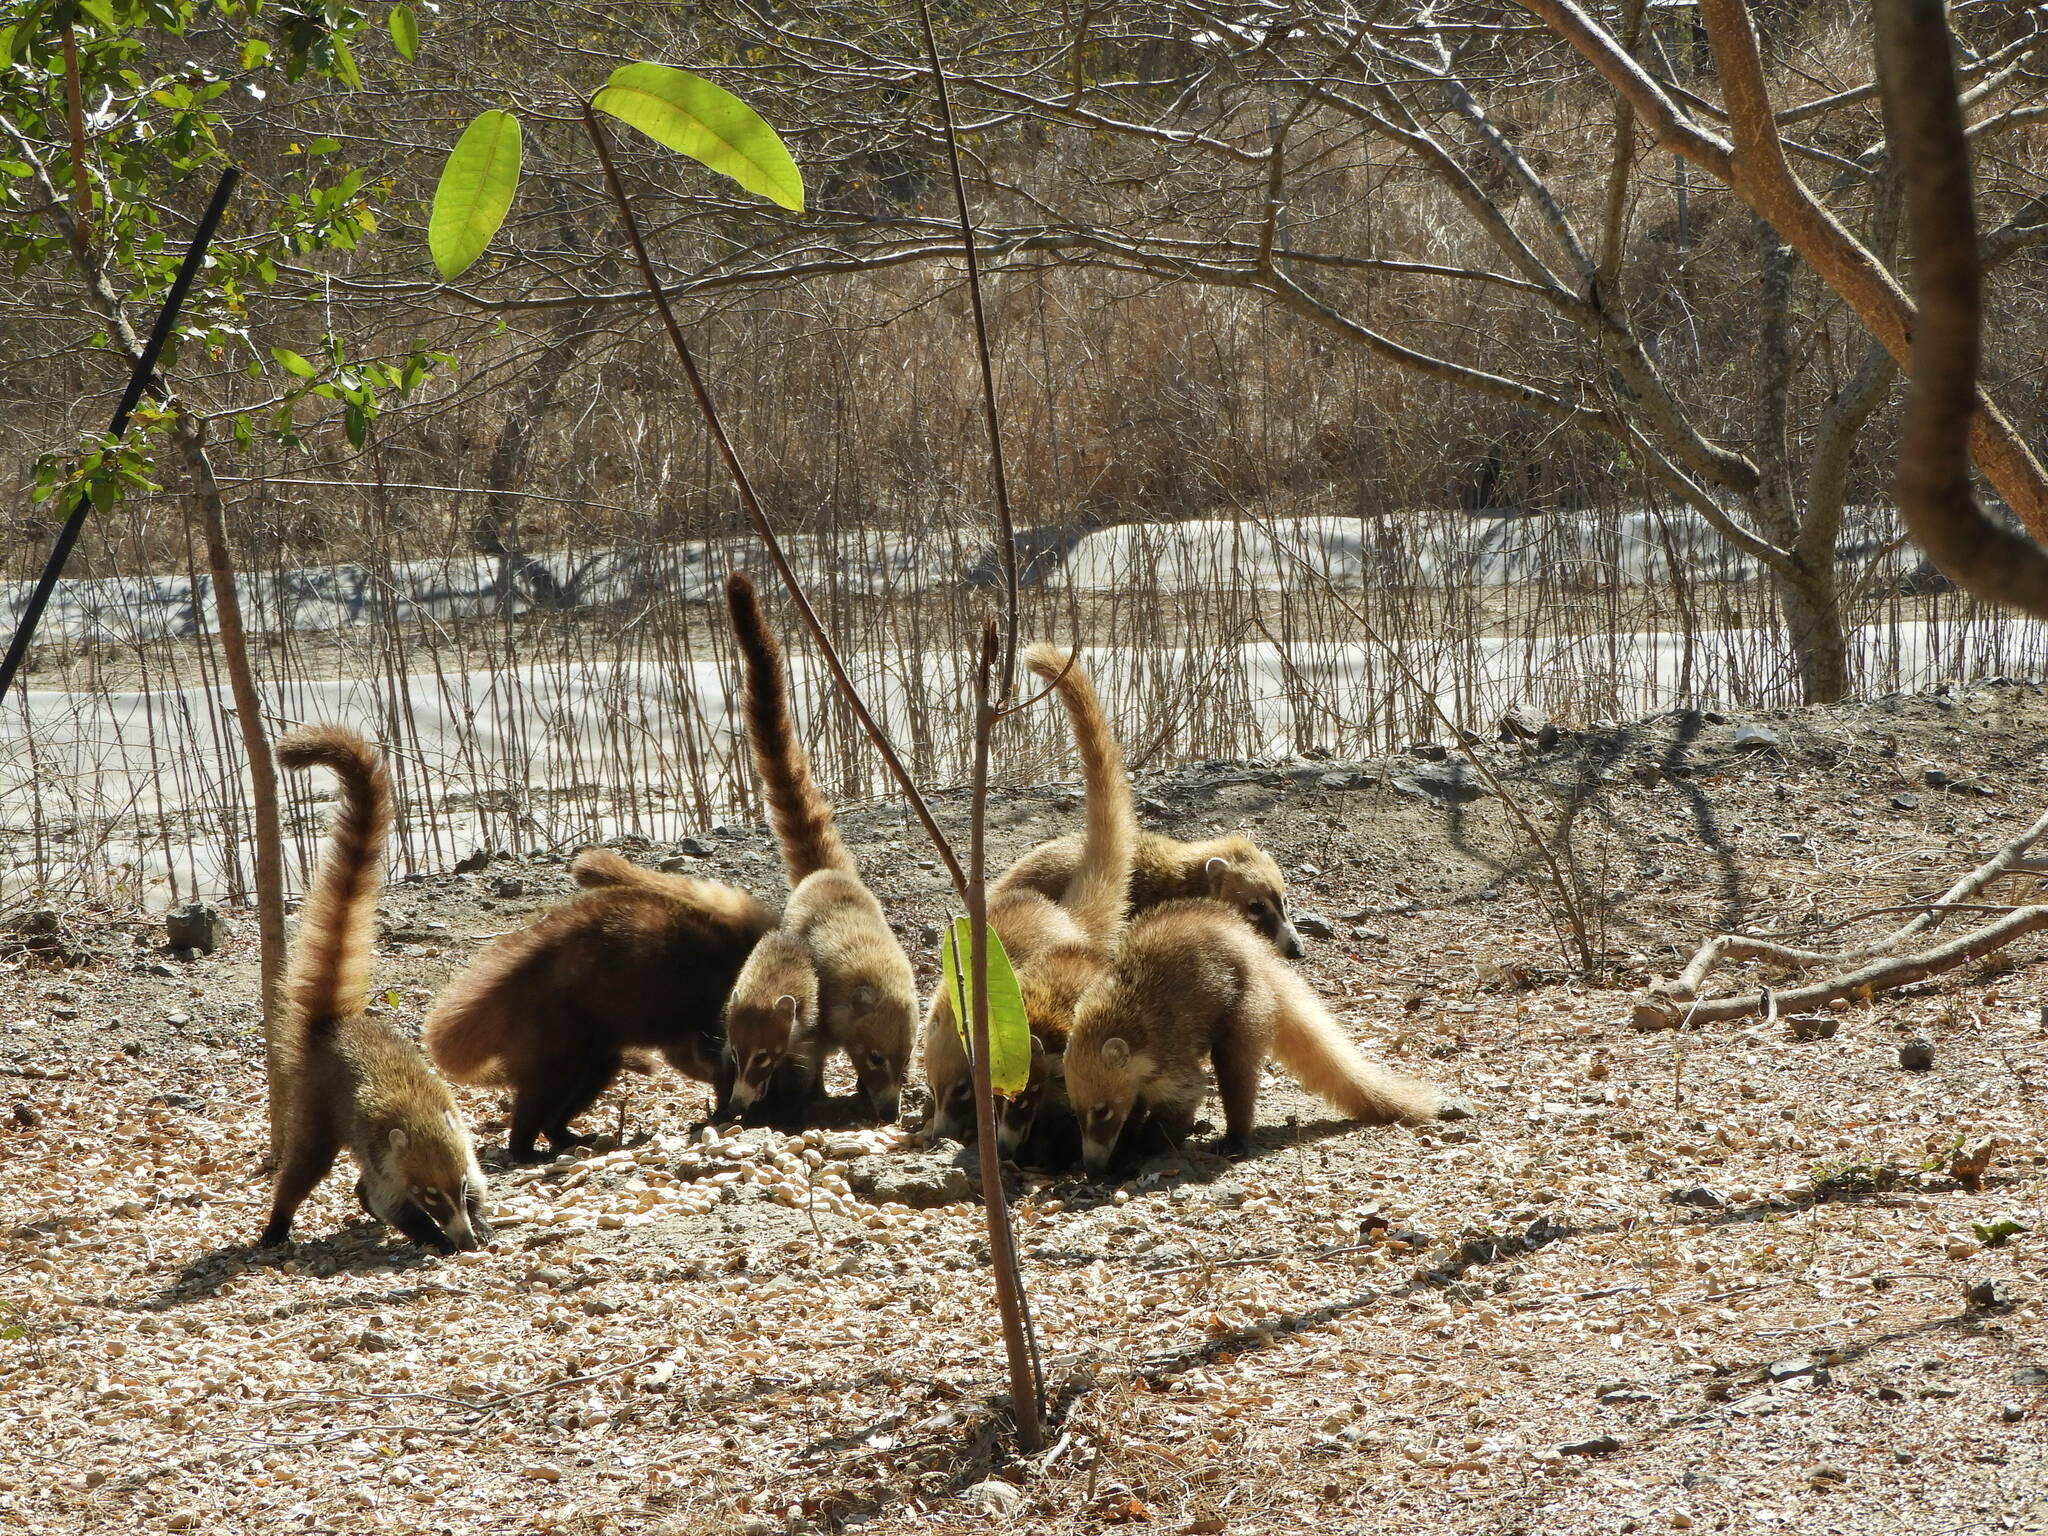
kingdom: Animalia
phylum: Chordata
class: Mammalia
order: Carnivora
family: Procyonidae
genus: Nasua
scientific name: Nasua narica
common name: White-nosed coati
